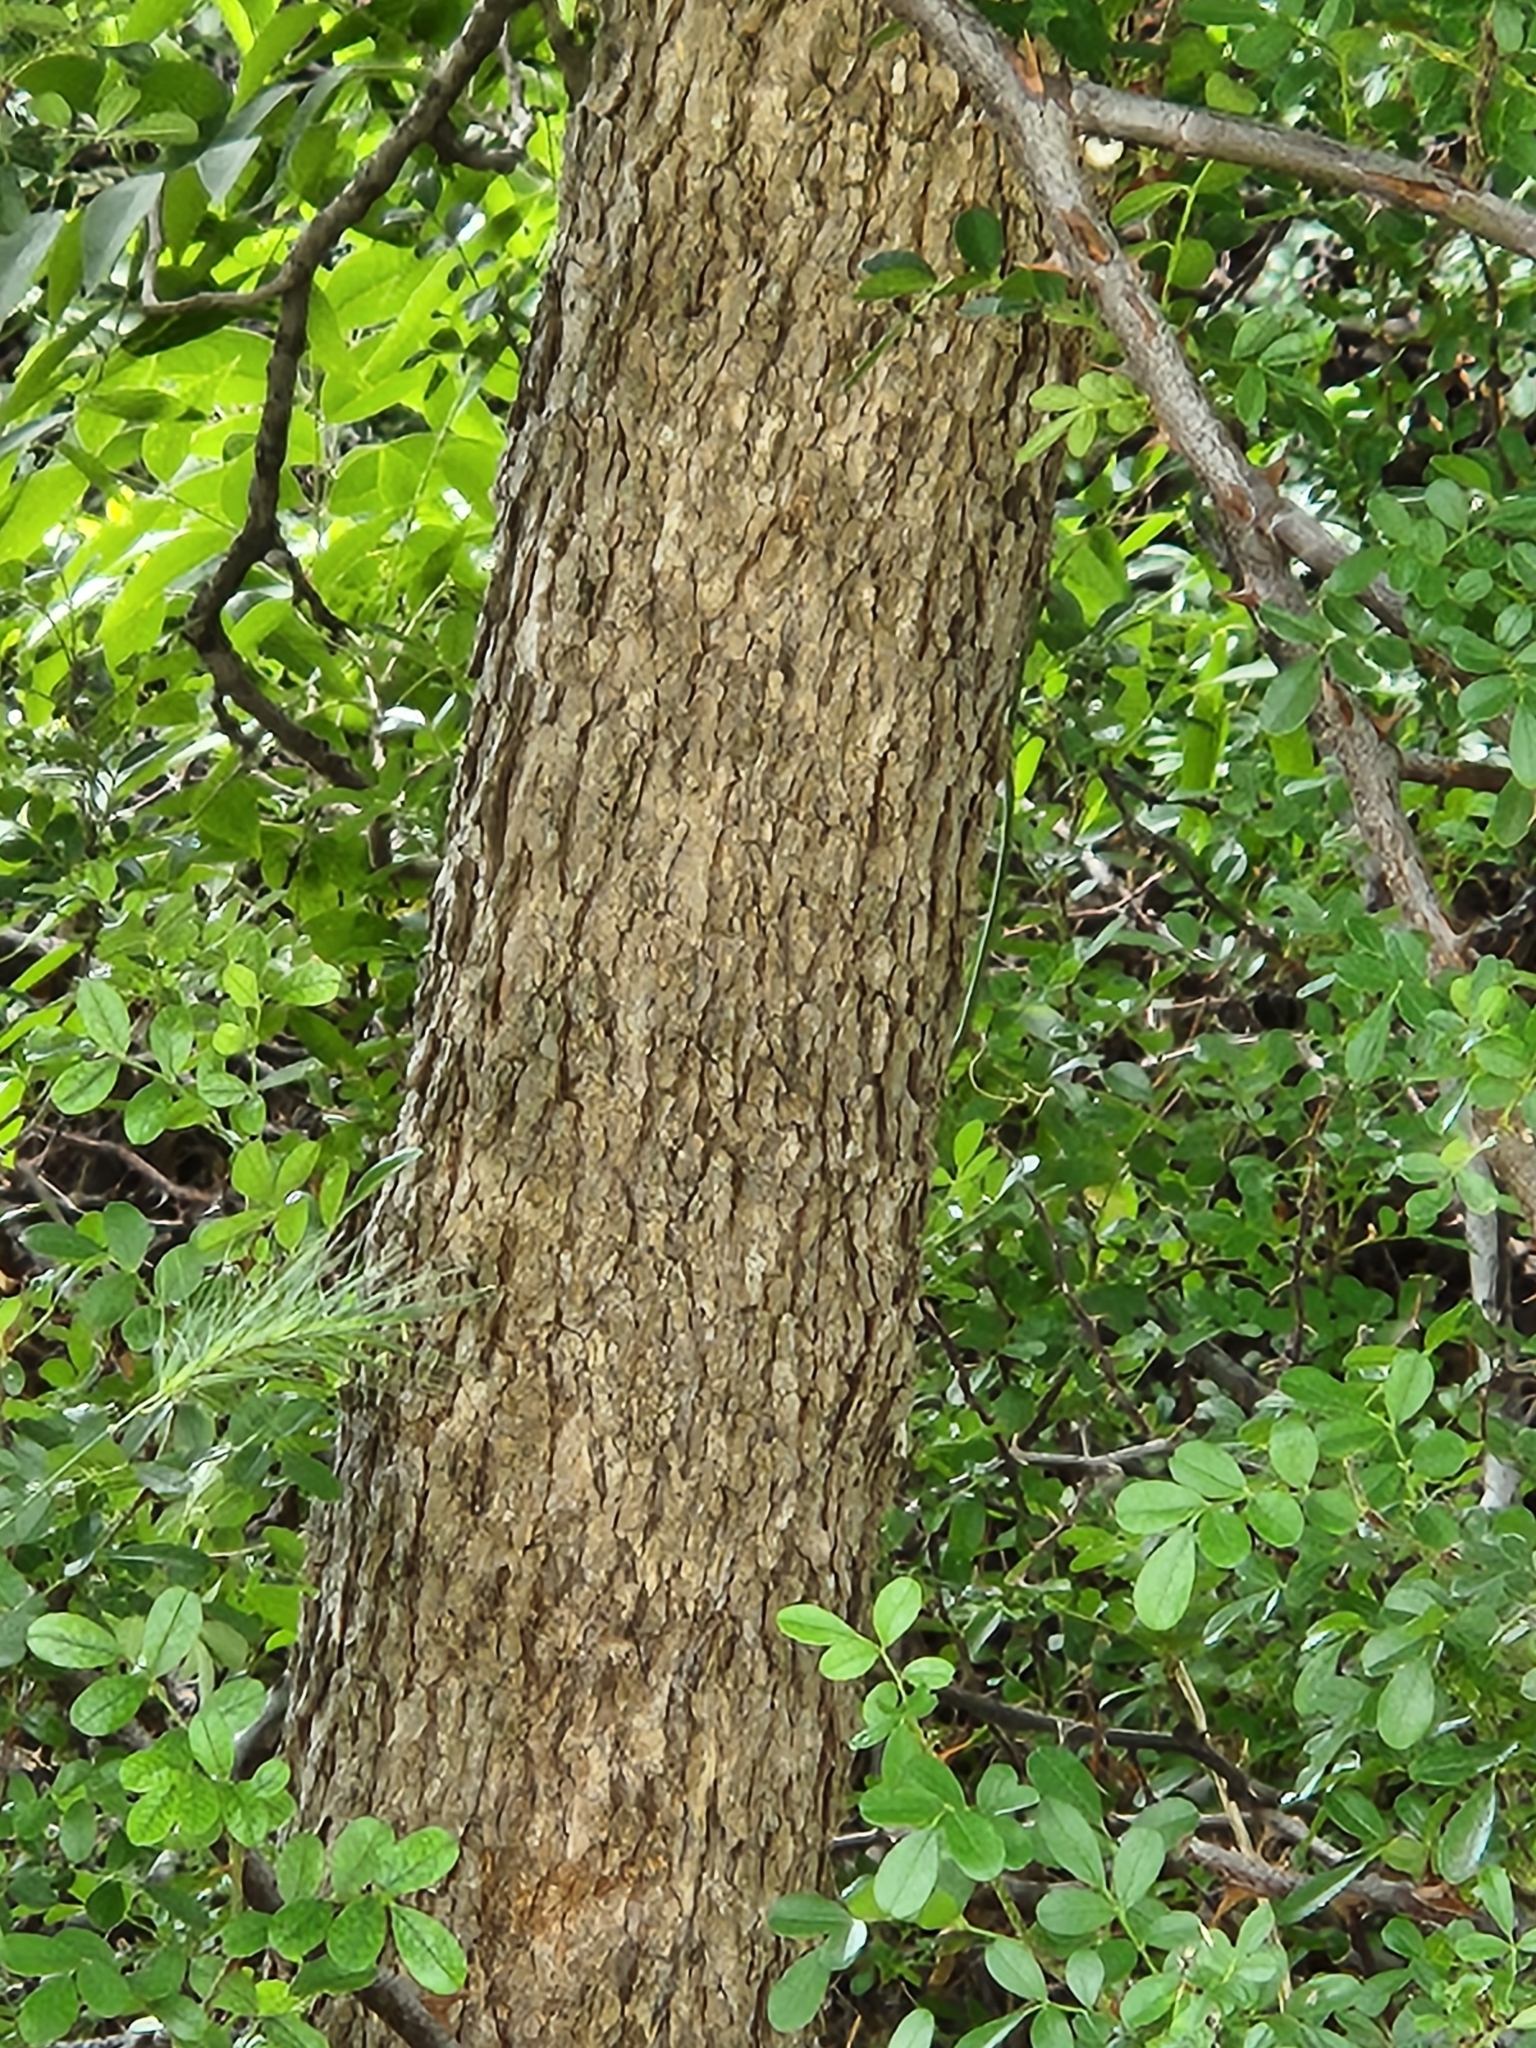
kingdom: Plantae
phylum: Tracheophyta
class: Magnoliopsida
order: Sapindales
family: Sapindaceae
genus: Sapindus
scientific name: Sapindus drummondii
